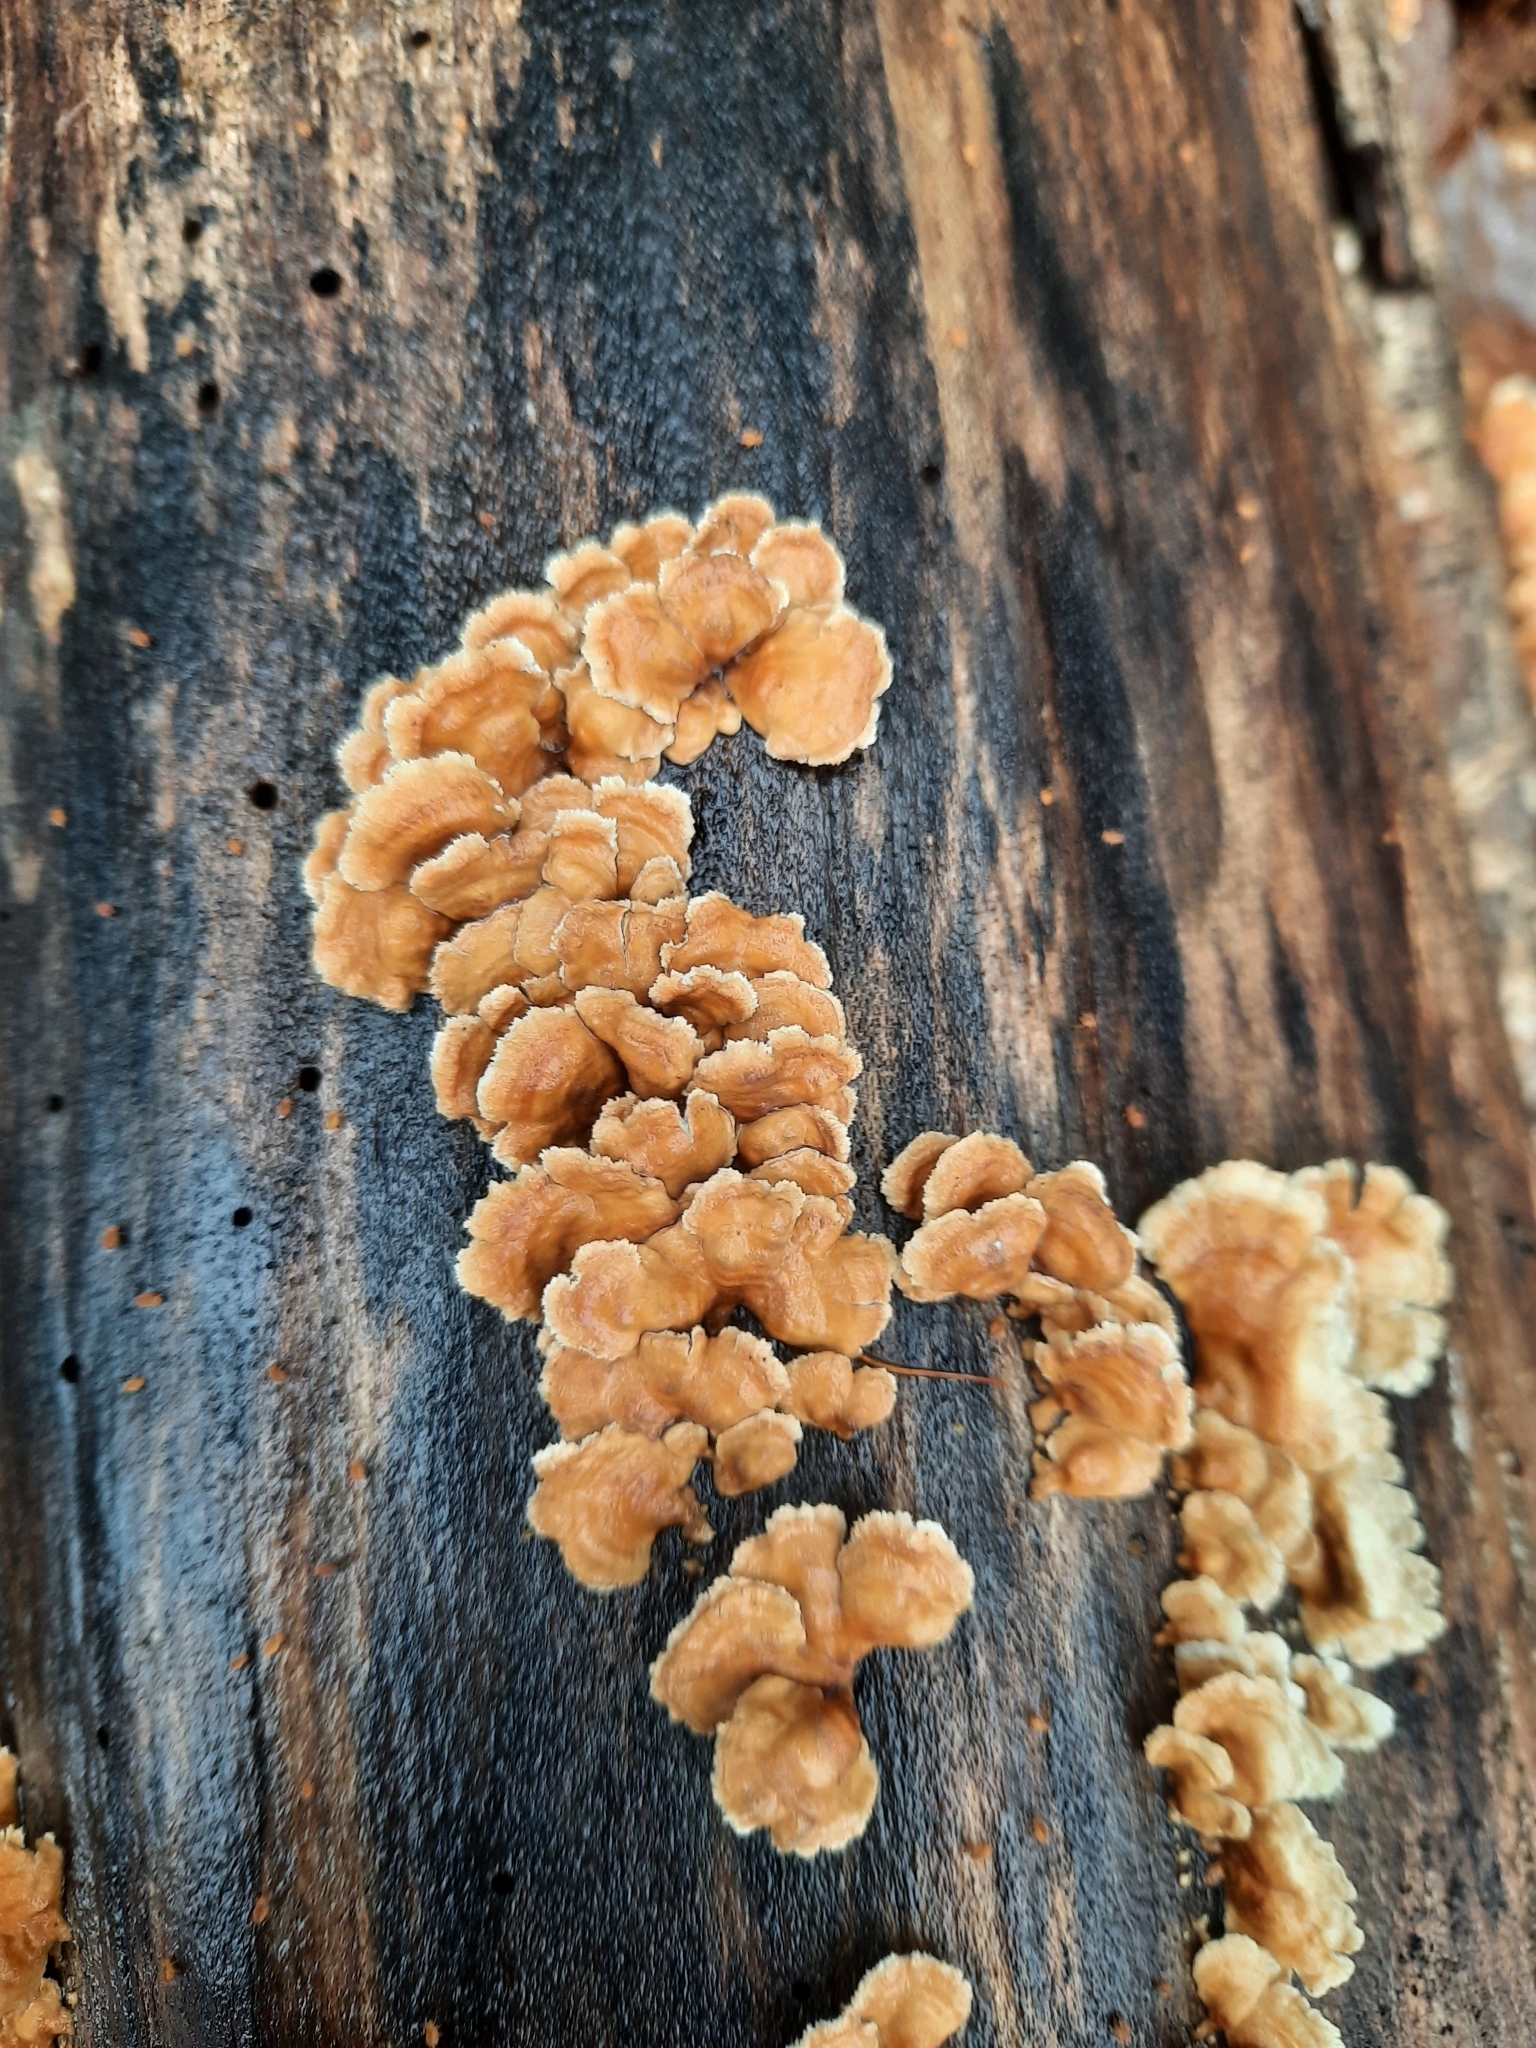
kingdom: Fungi
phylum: Basidiomycota
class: Agaricomycetes
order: Amylocorticiales
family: Amylocorticiaceae
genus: Plicaturopsis
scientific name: Plicaturopsis crispa
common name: Crimped gill
